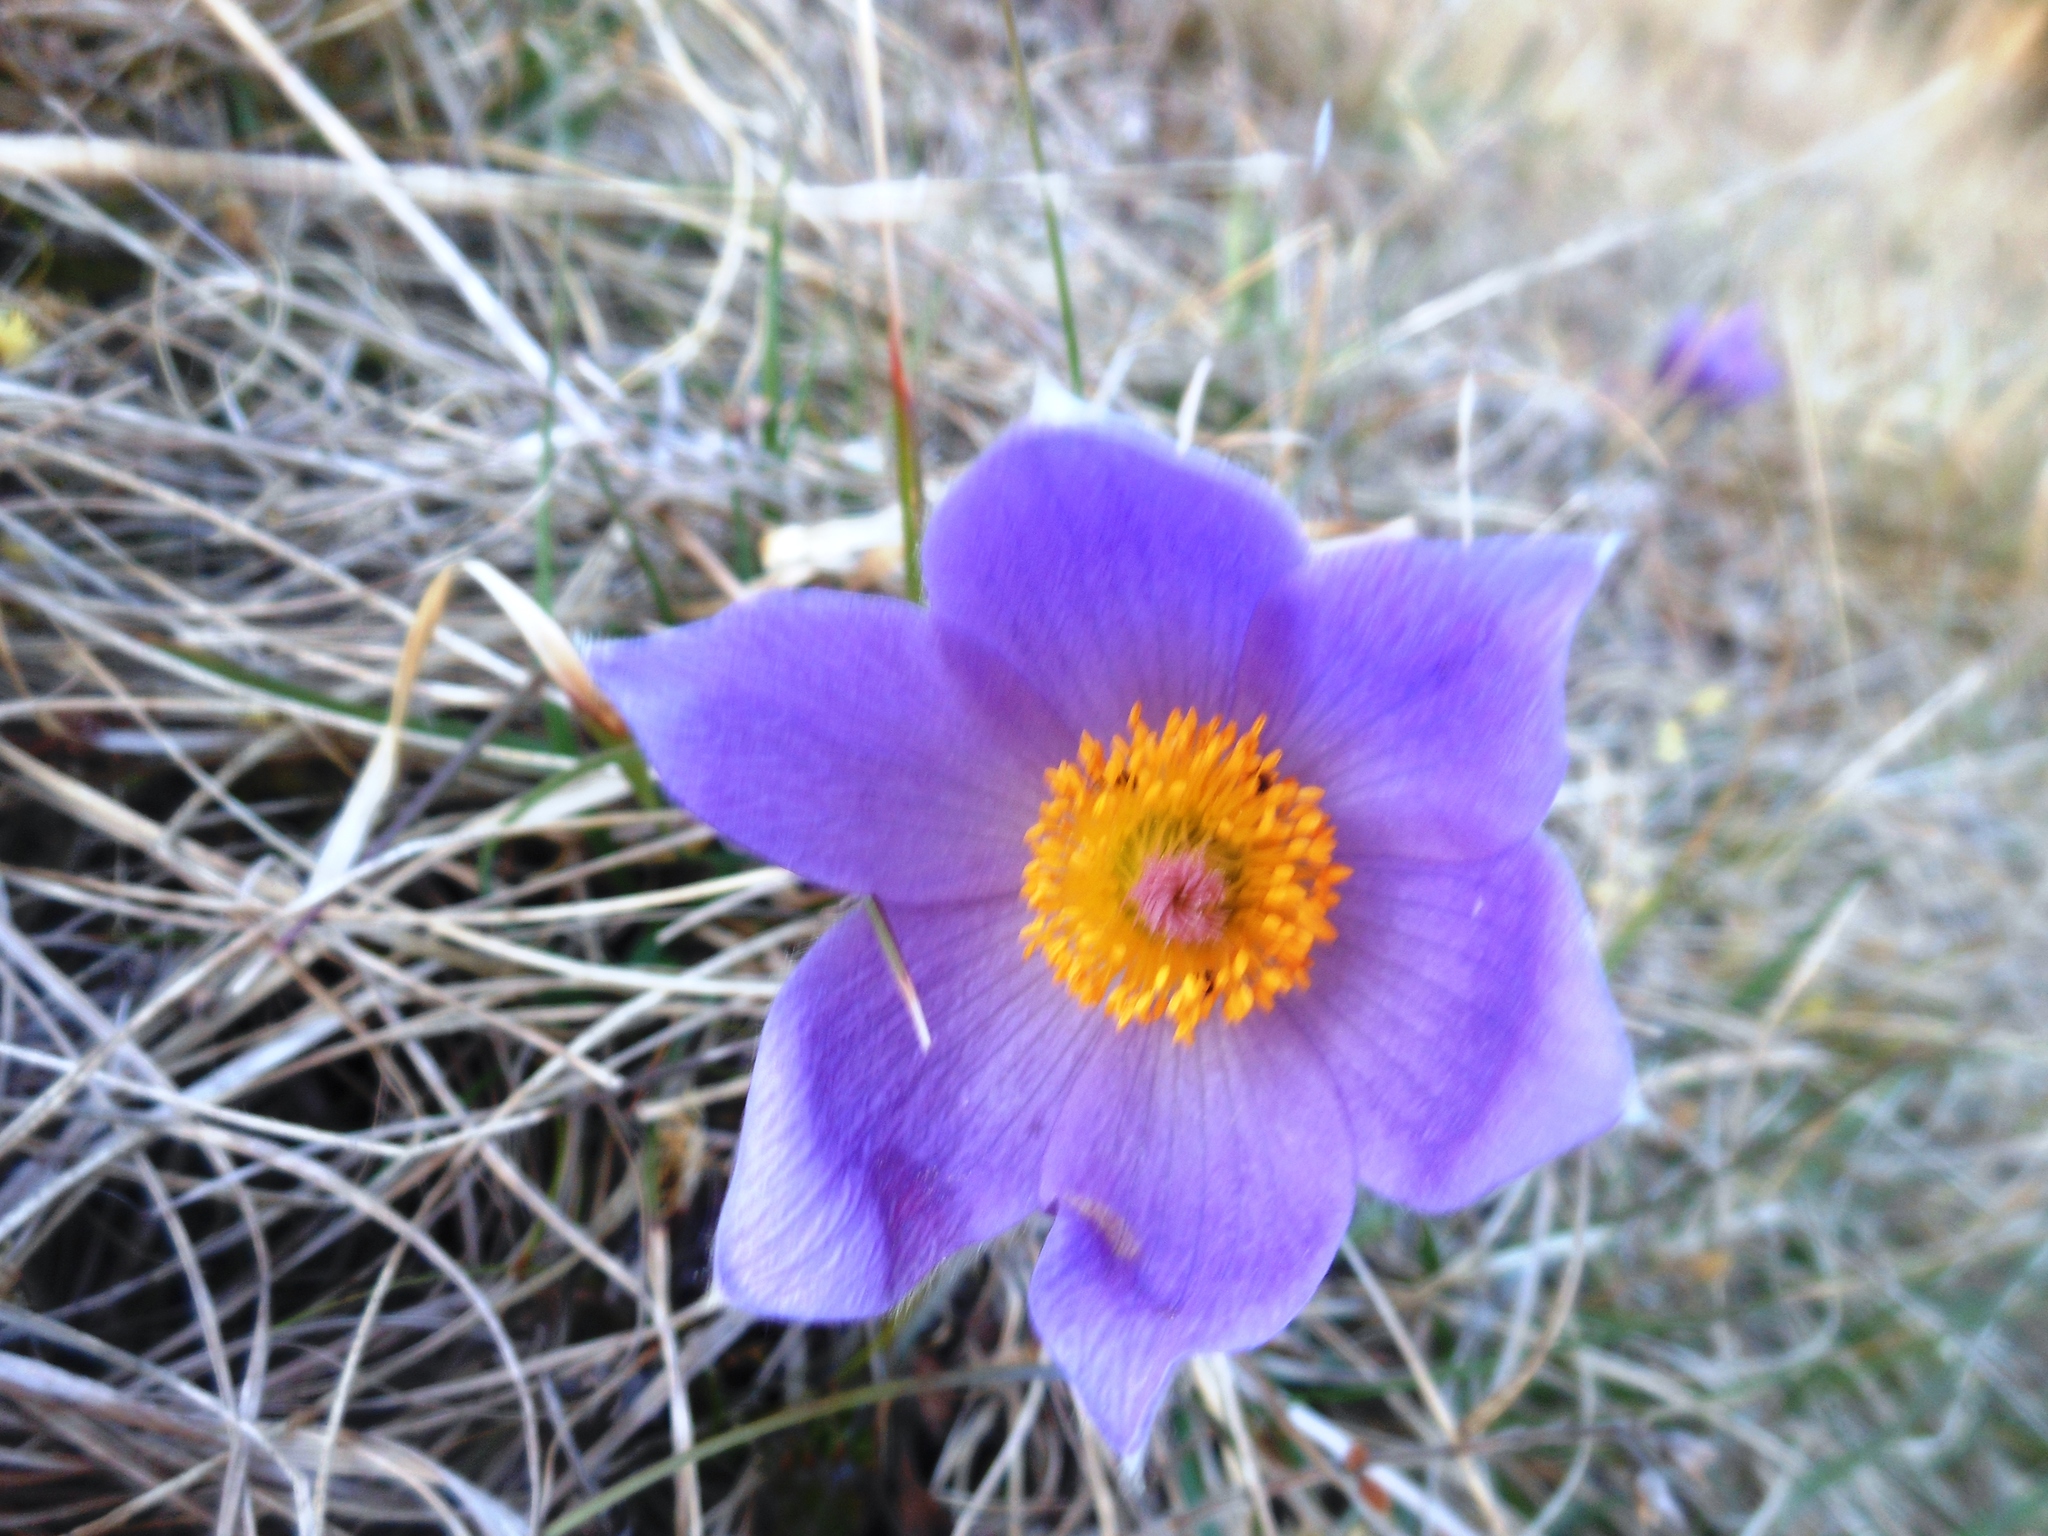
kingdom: Plantae
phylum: Tracheophyta
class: Magnoliopsida
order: Ranunculales
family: Ranunculaceae
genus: Pulsatilla
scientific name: Pulsatilla grandis
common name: Greater pasque flower
